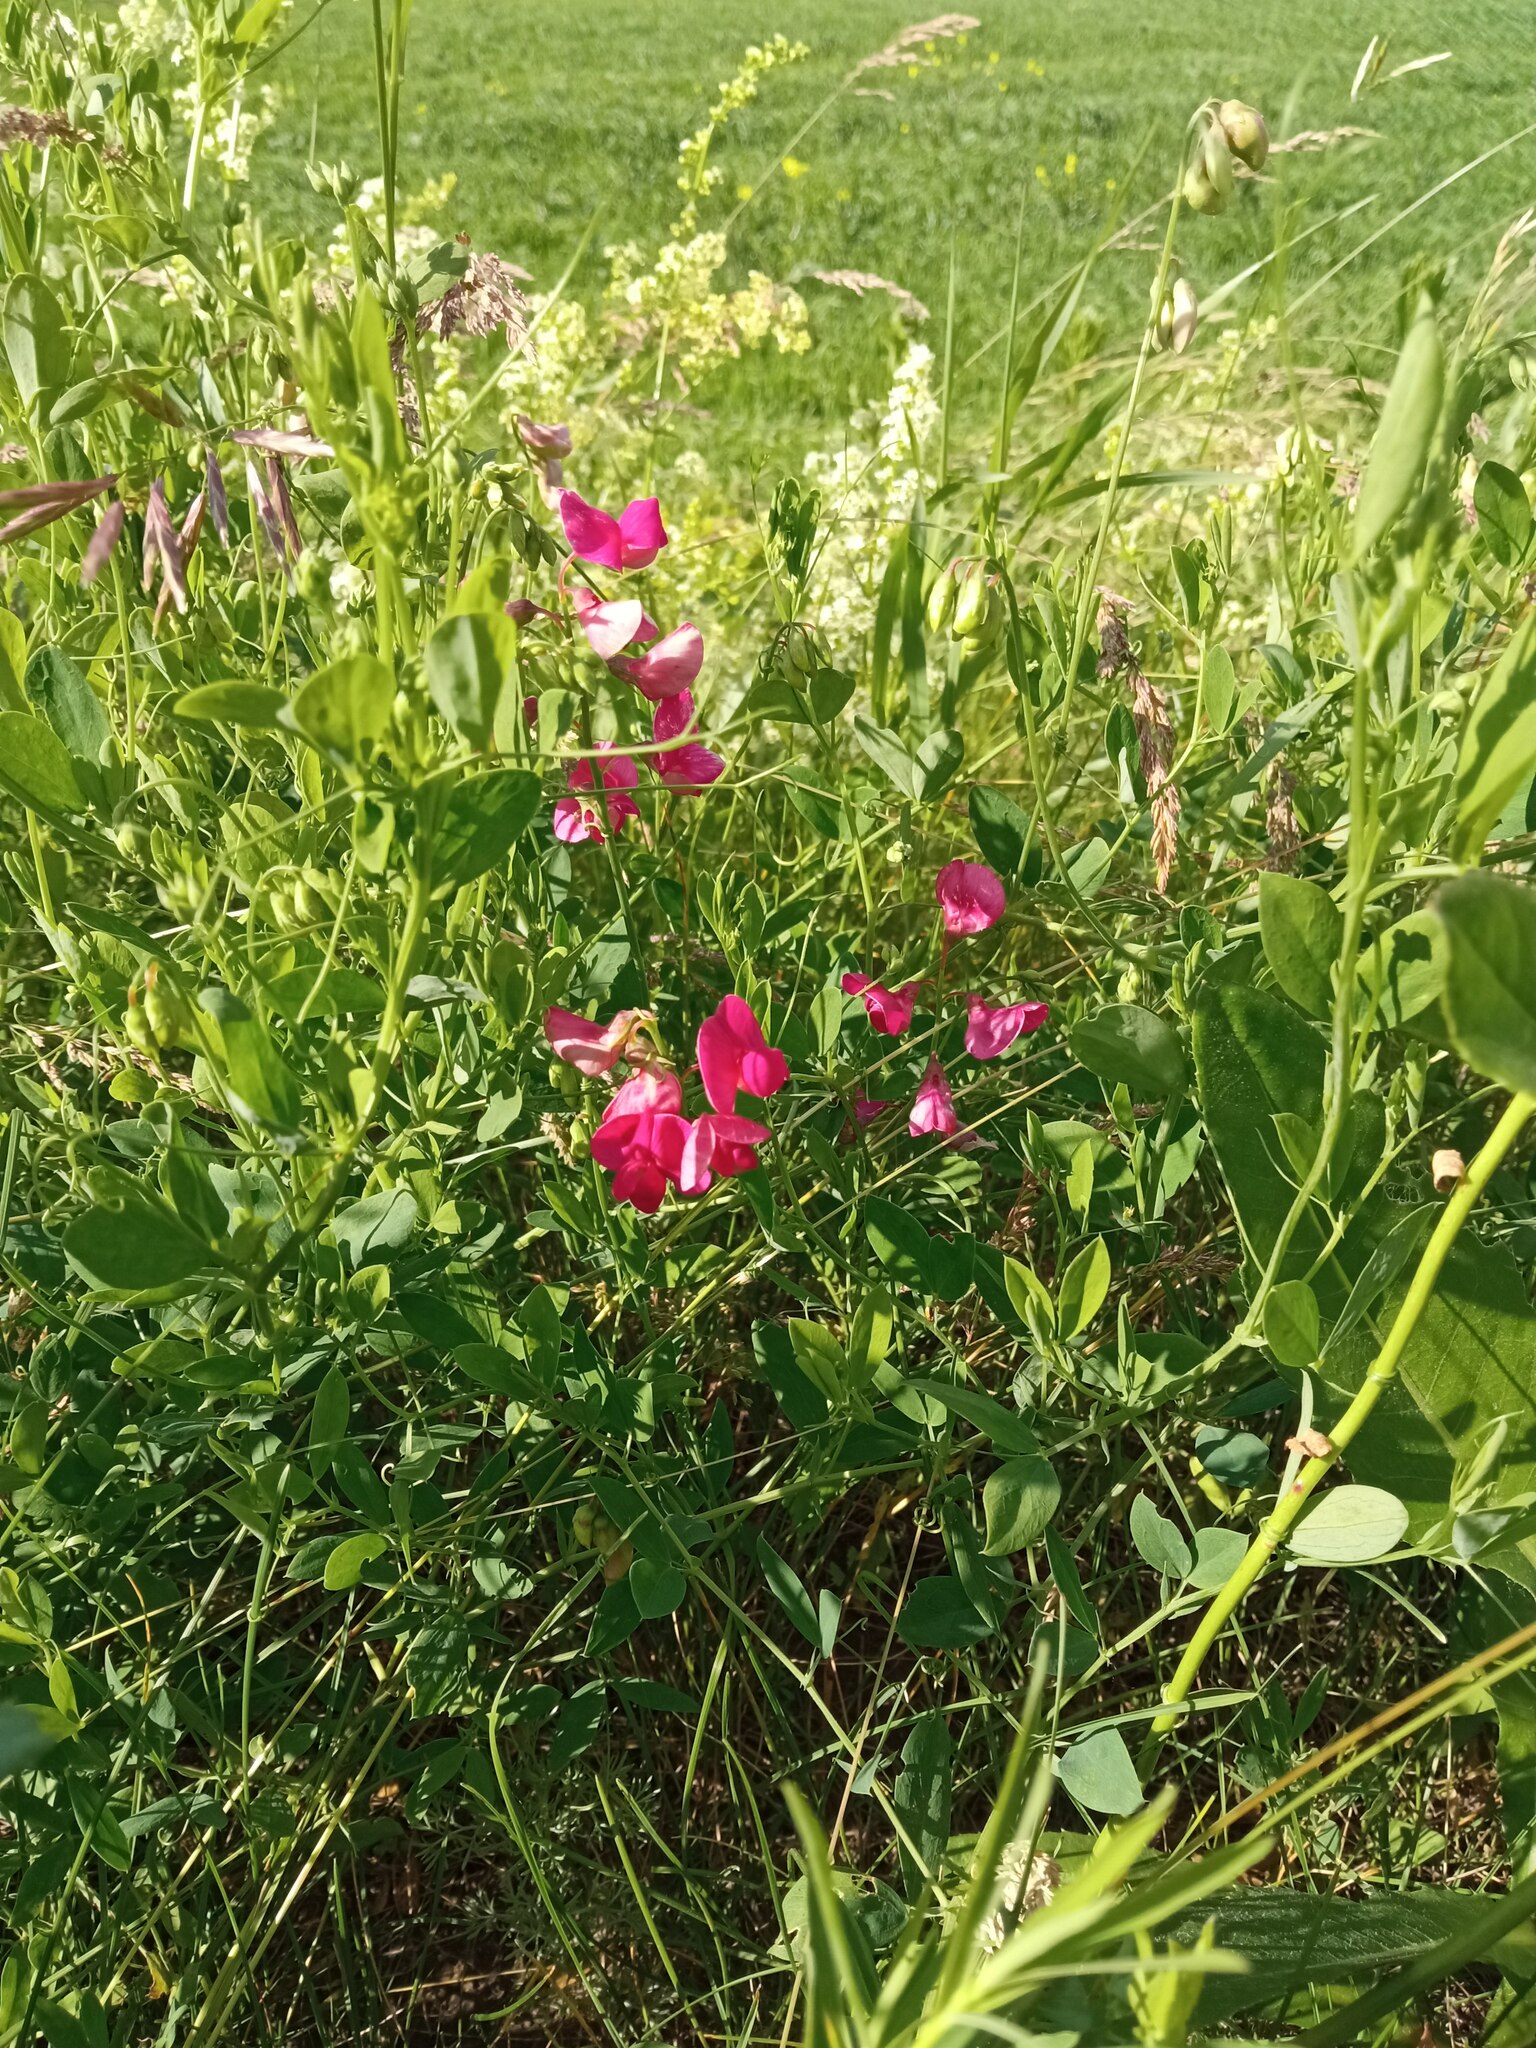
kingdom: Plantae
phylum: Tracheophyta
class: Magnoliopsida
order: Fabales
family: Fabaceae
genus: Lathyrus
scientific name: Lathyrus tuberosus
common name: Tuberous pea
